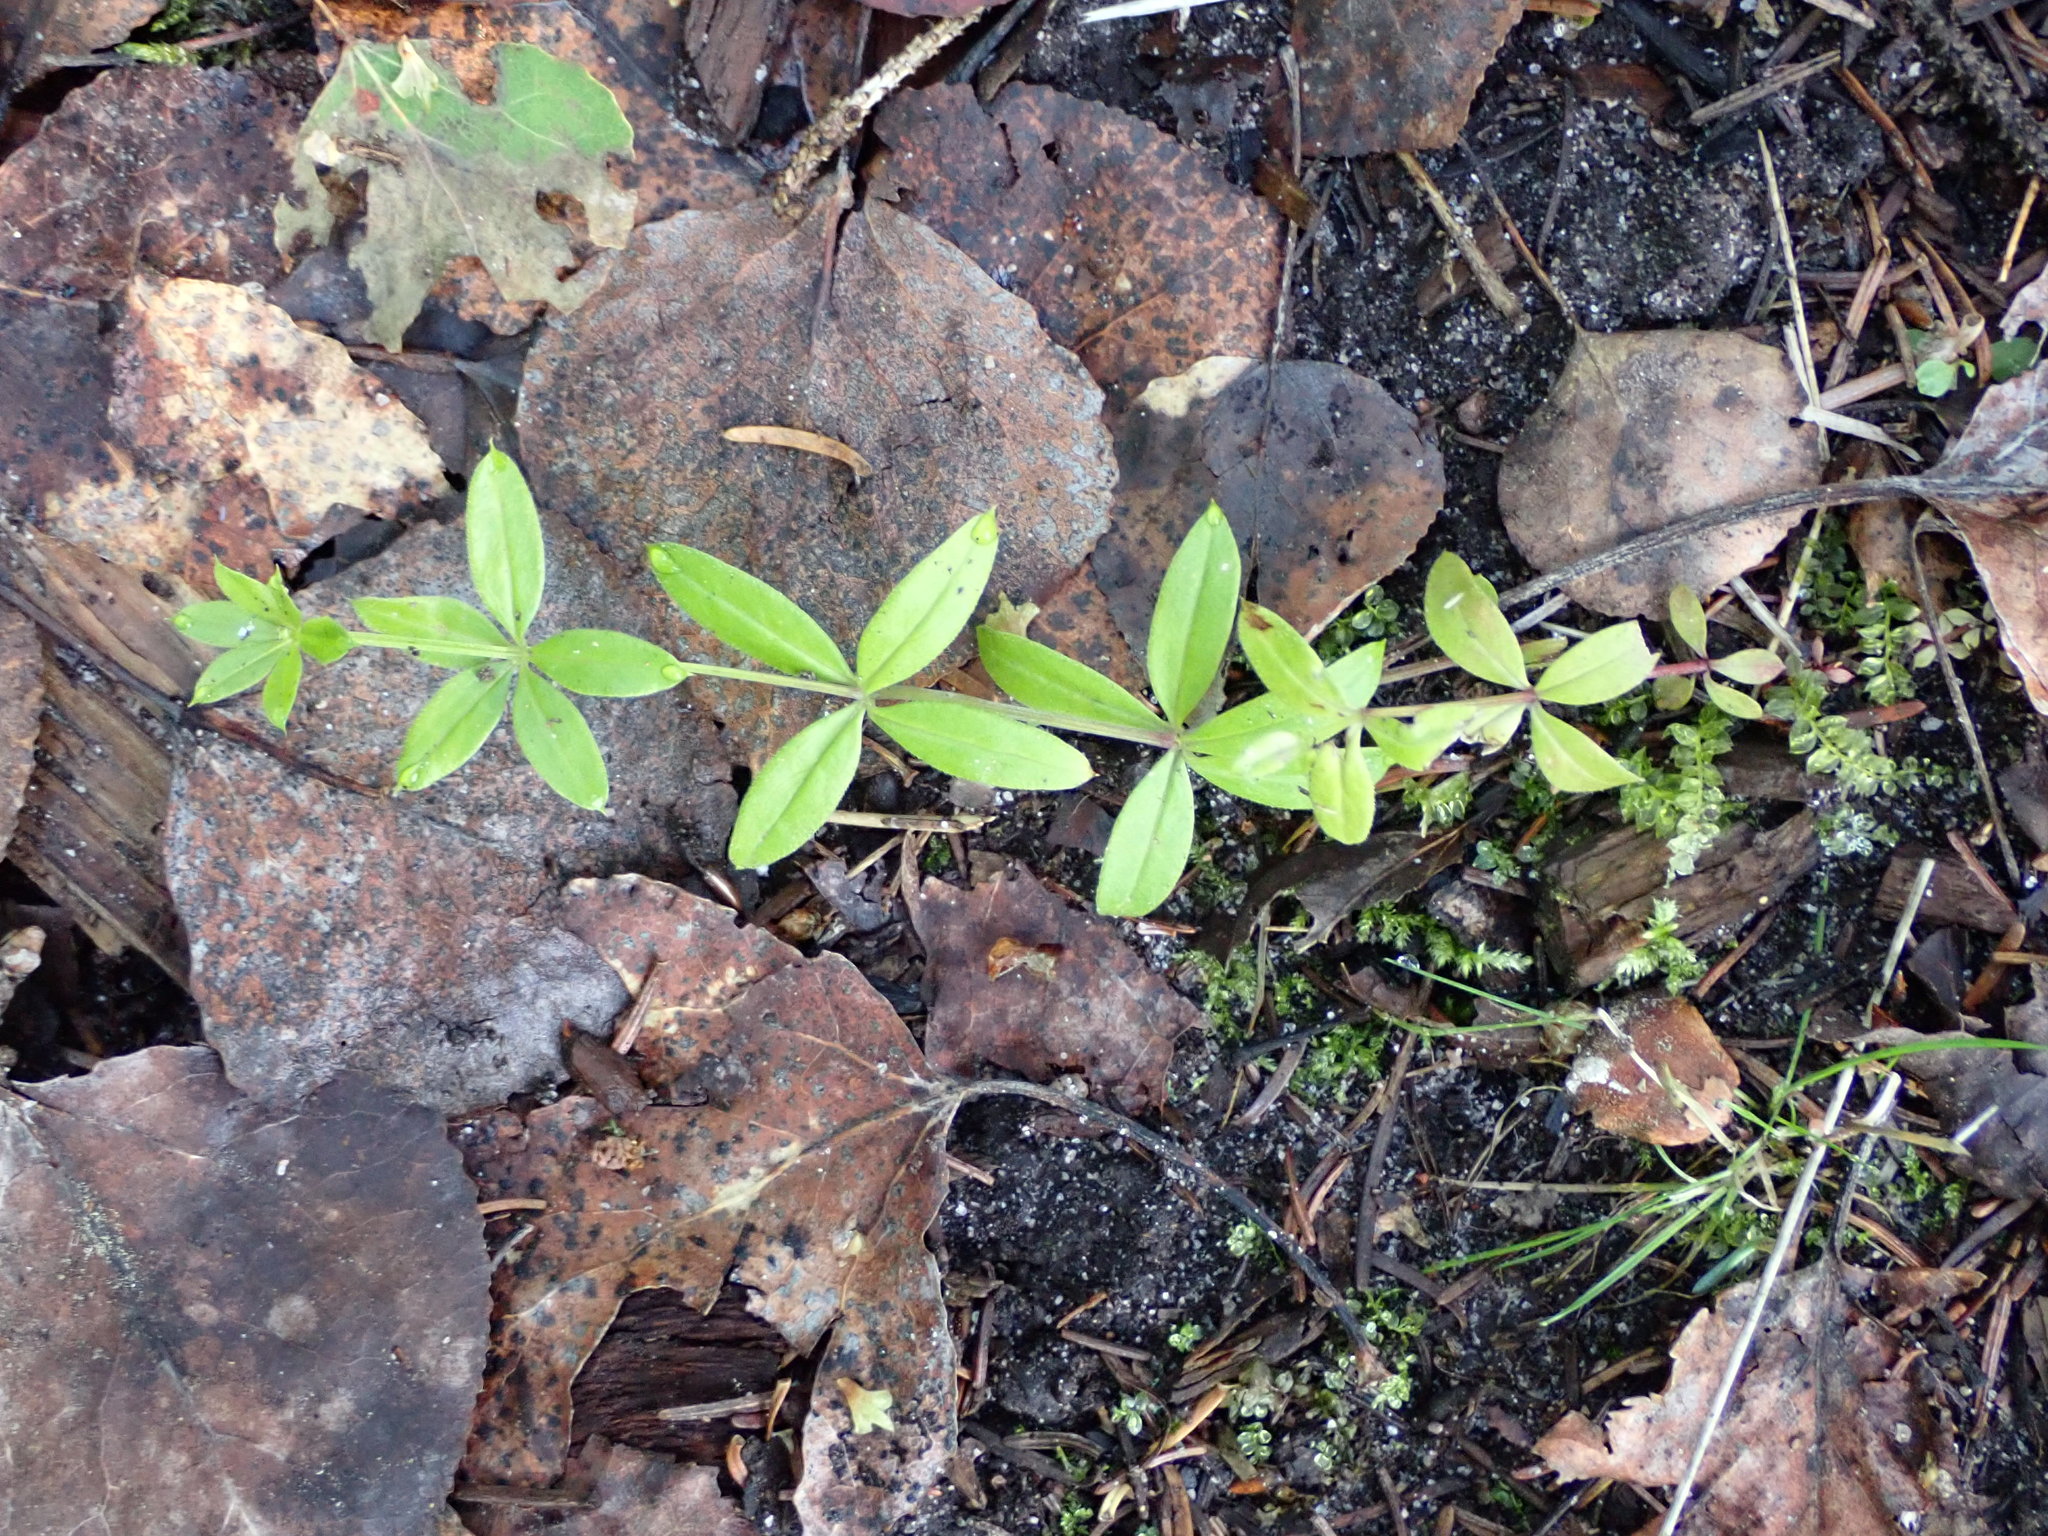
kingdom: Plantae
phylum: Tracheophyta
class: Magnoliopsida
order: Gentianales
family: Rubiaceae
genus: Galium
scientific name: Galium triflorum
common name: Fragrant bedstraw
